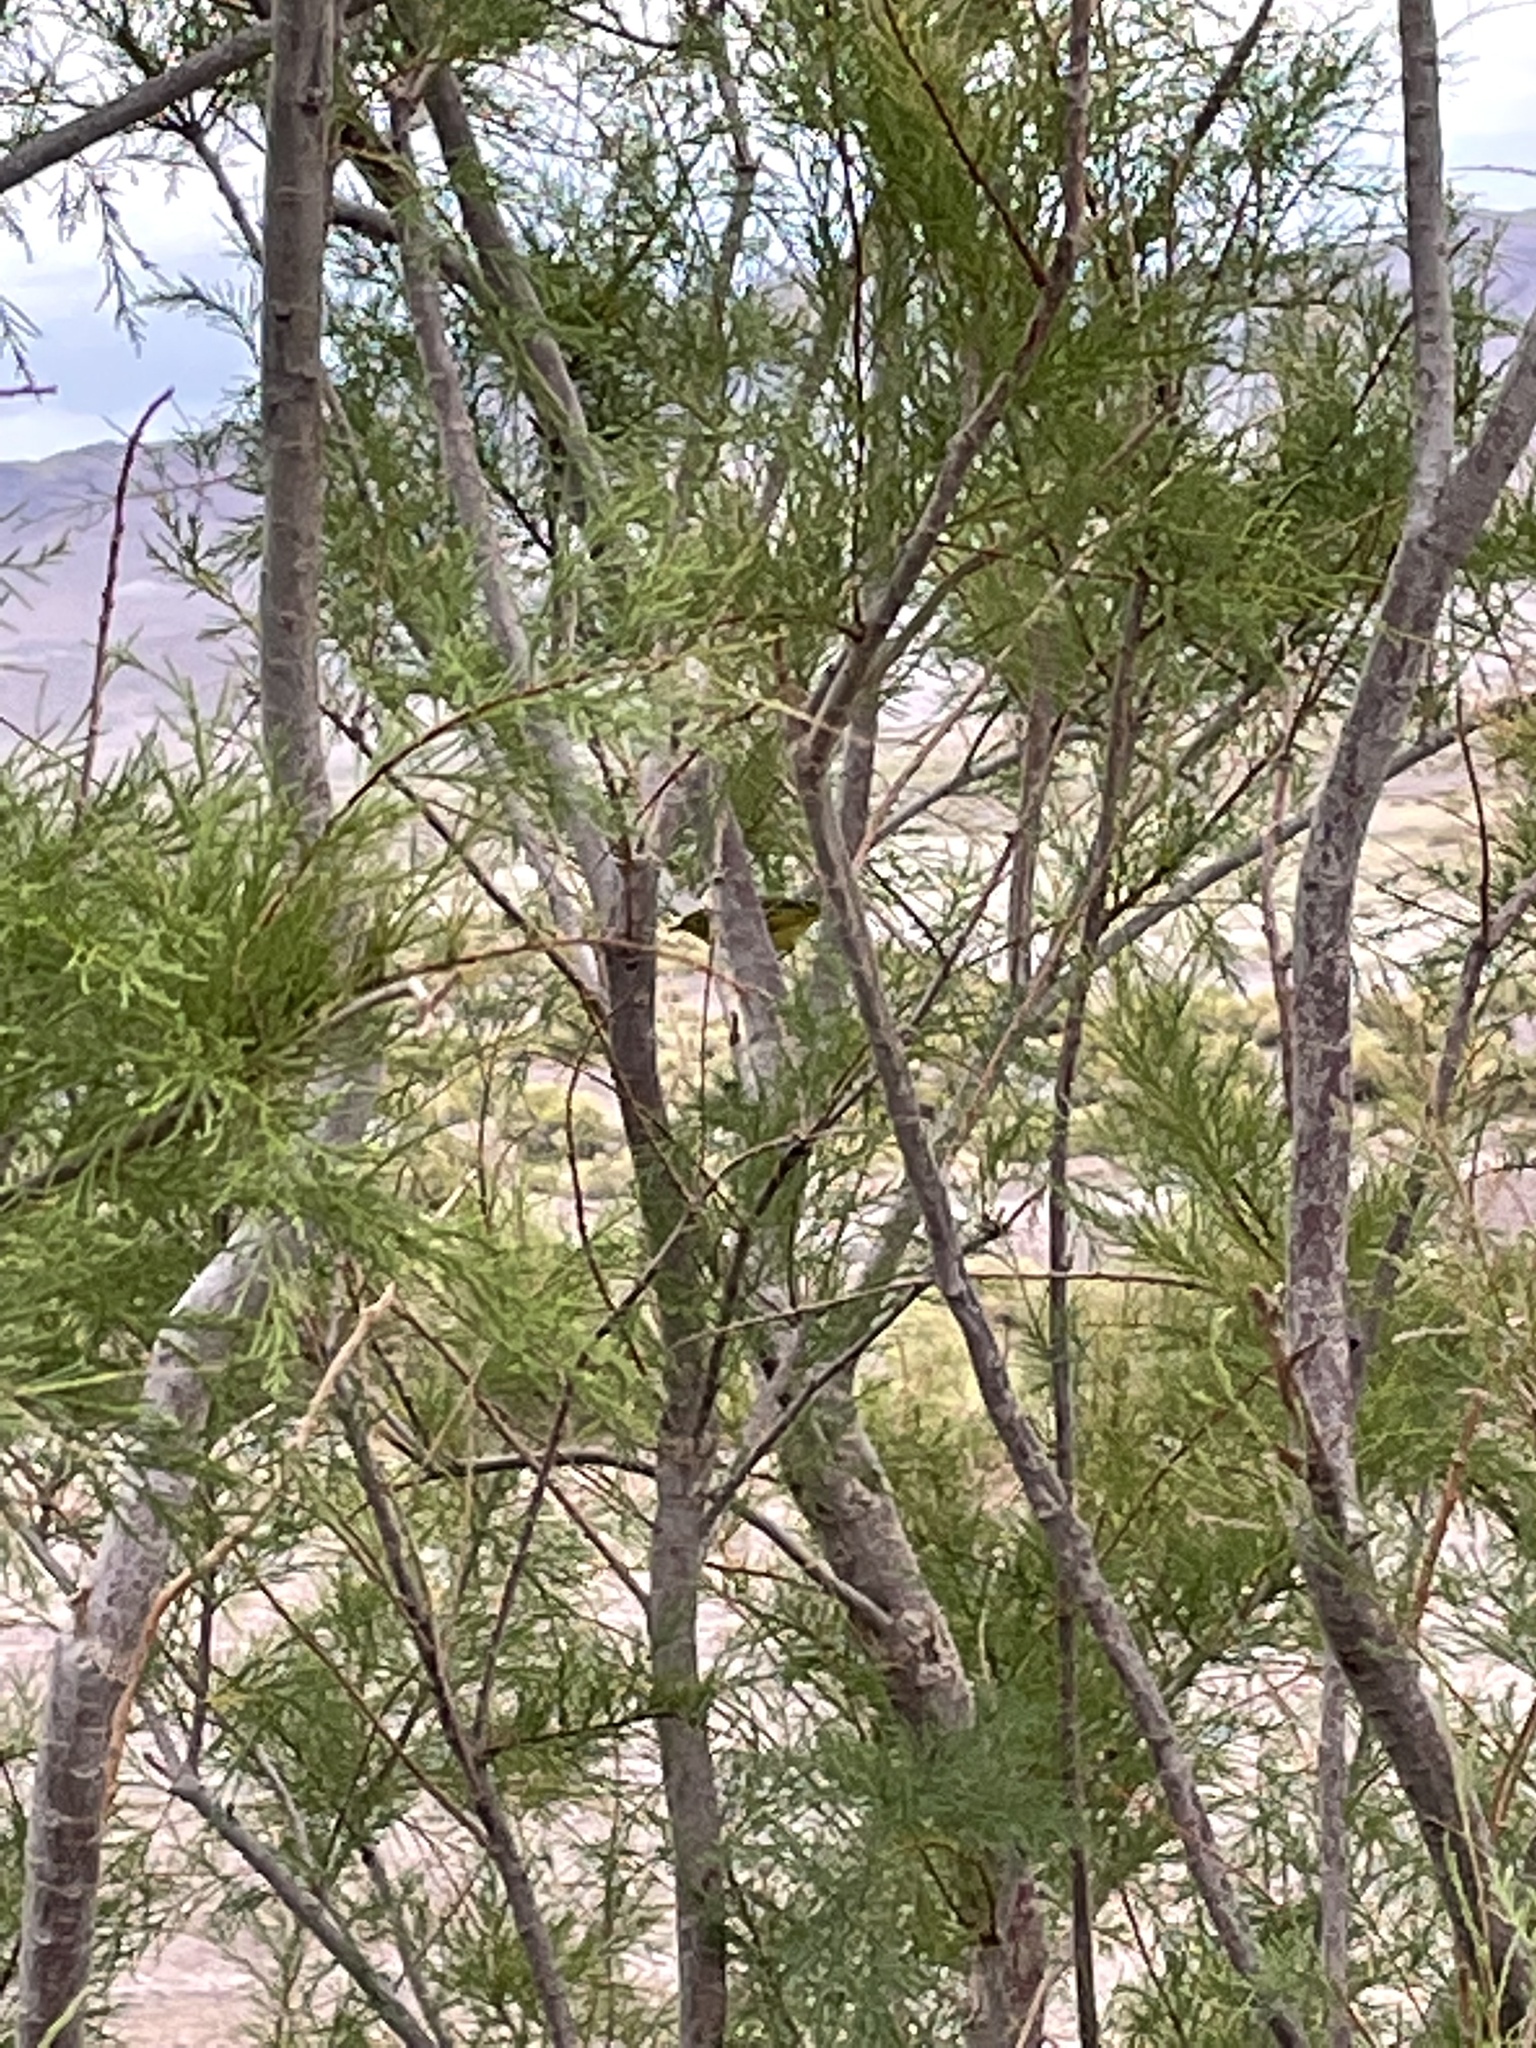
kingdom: Plantae
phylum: Tracheophyta
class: Magnoliopsida
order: Caryophyllales
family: Tamaricaceae
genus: Tamarix
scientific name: Tamarix
